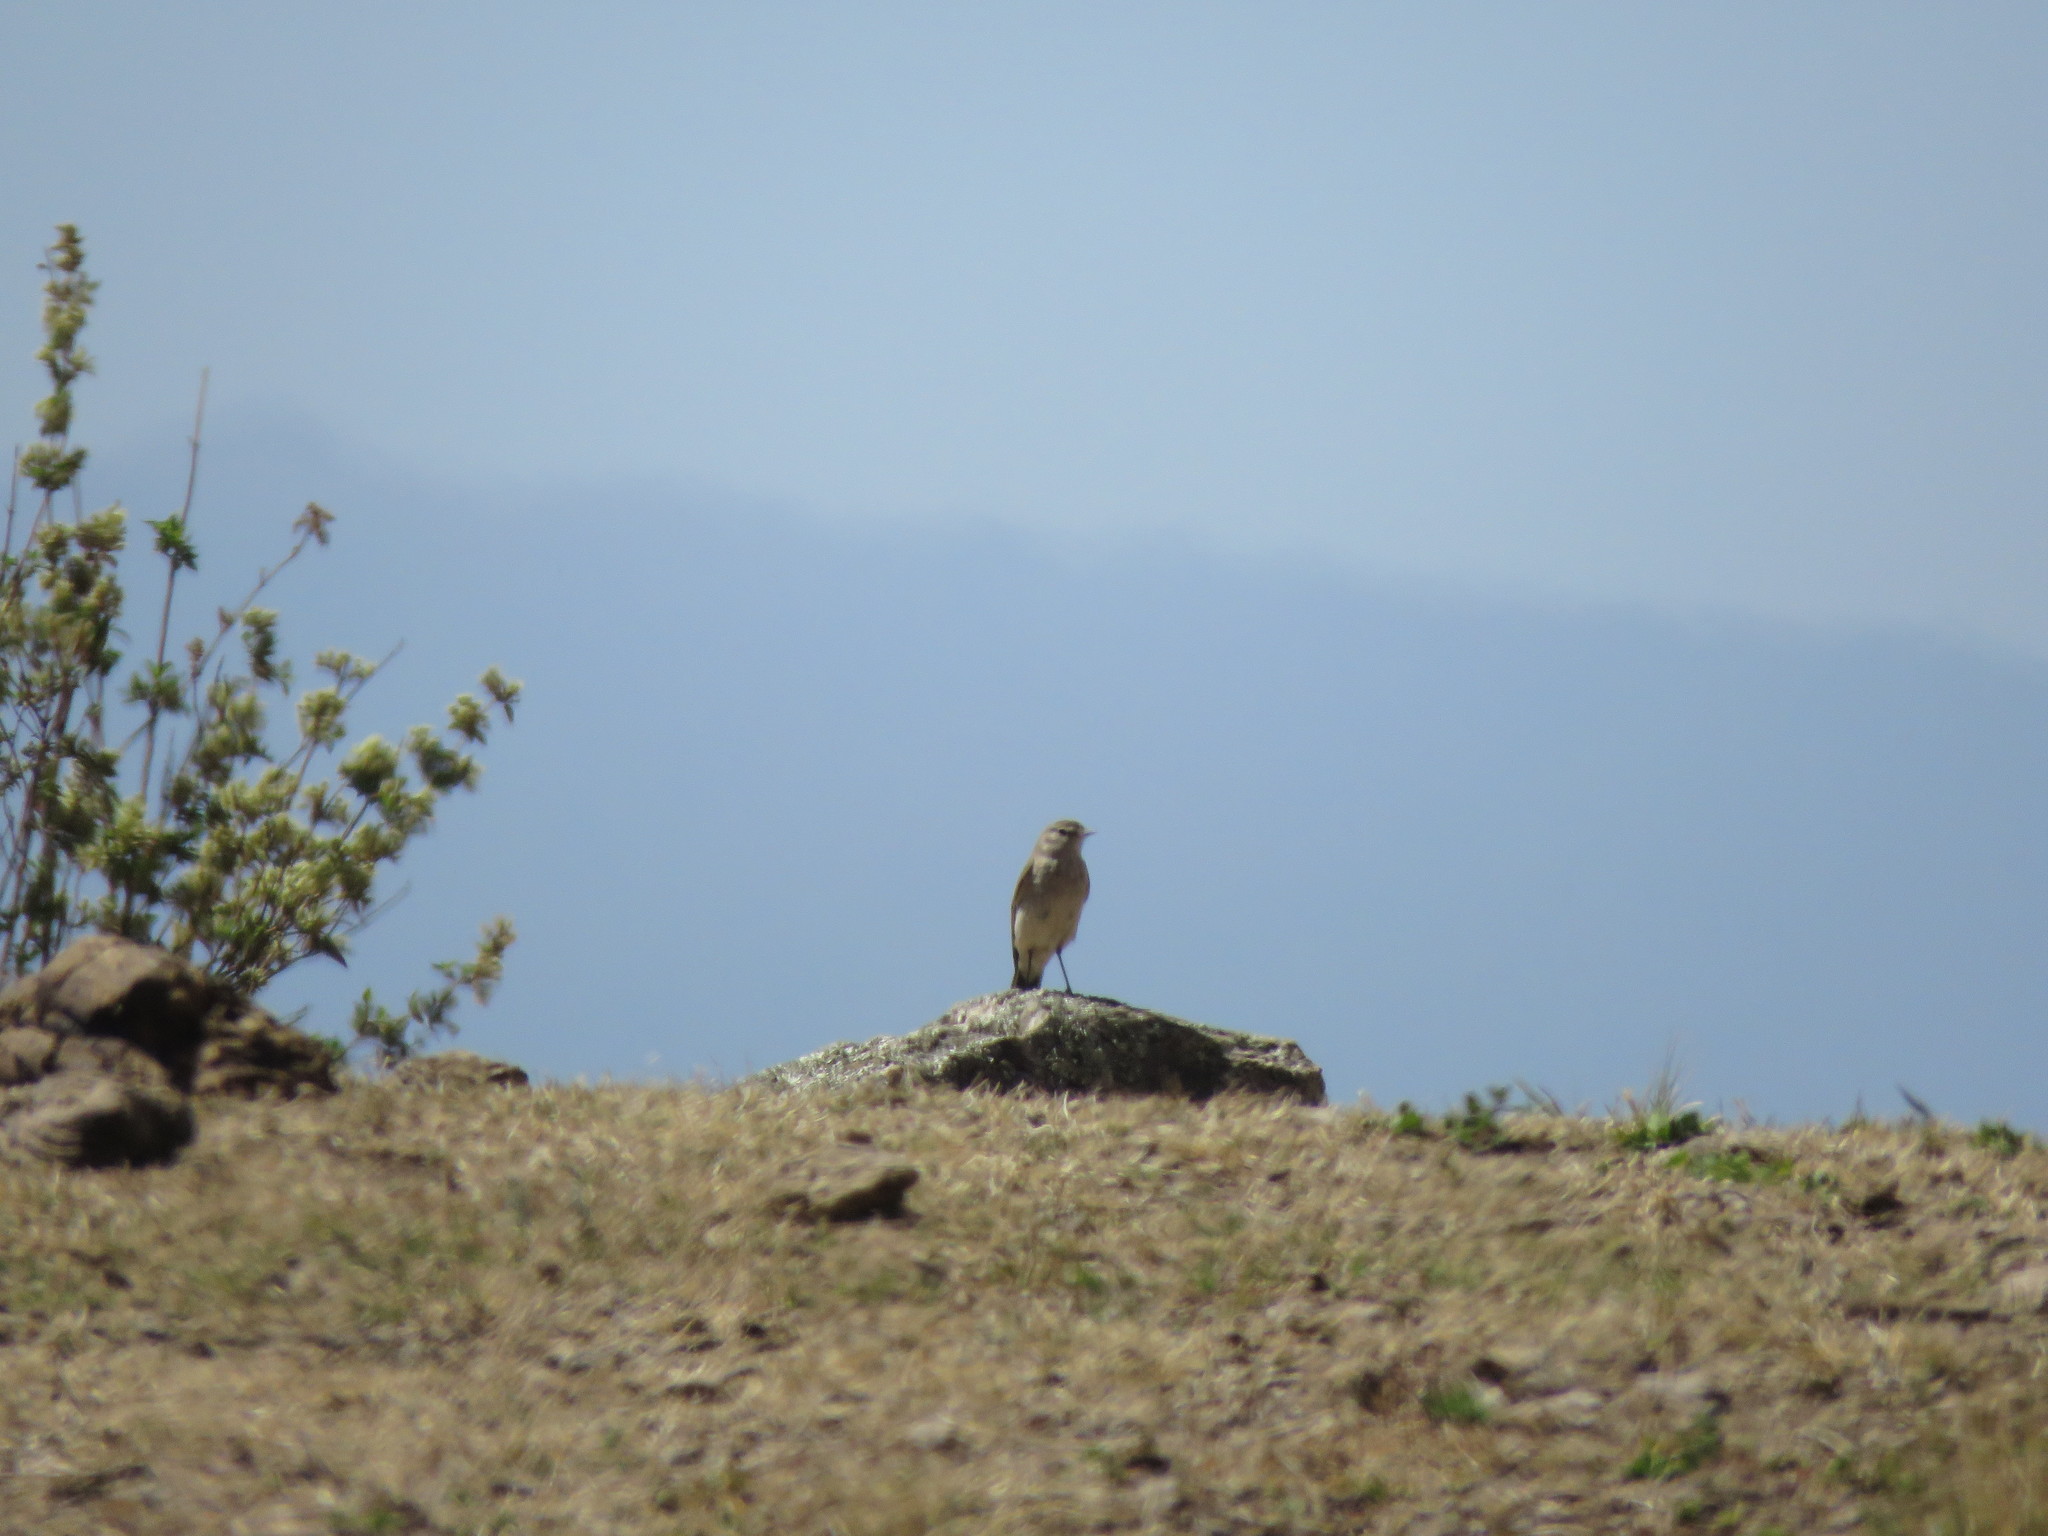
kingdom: Animalia
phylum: Chordata
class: Aves
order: Passeriformes
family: Tyrannidae
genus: Muscisaxicola
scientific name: Muscisaxicola maculirostris
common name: Spot-billed ground tyrant
